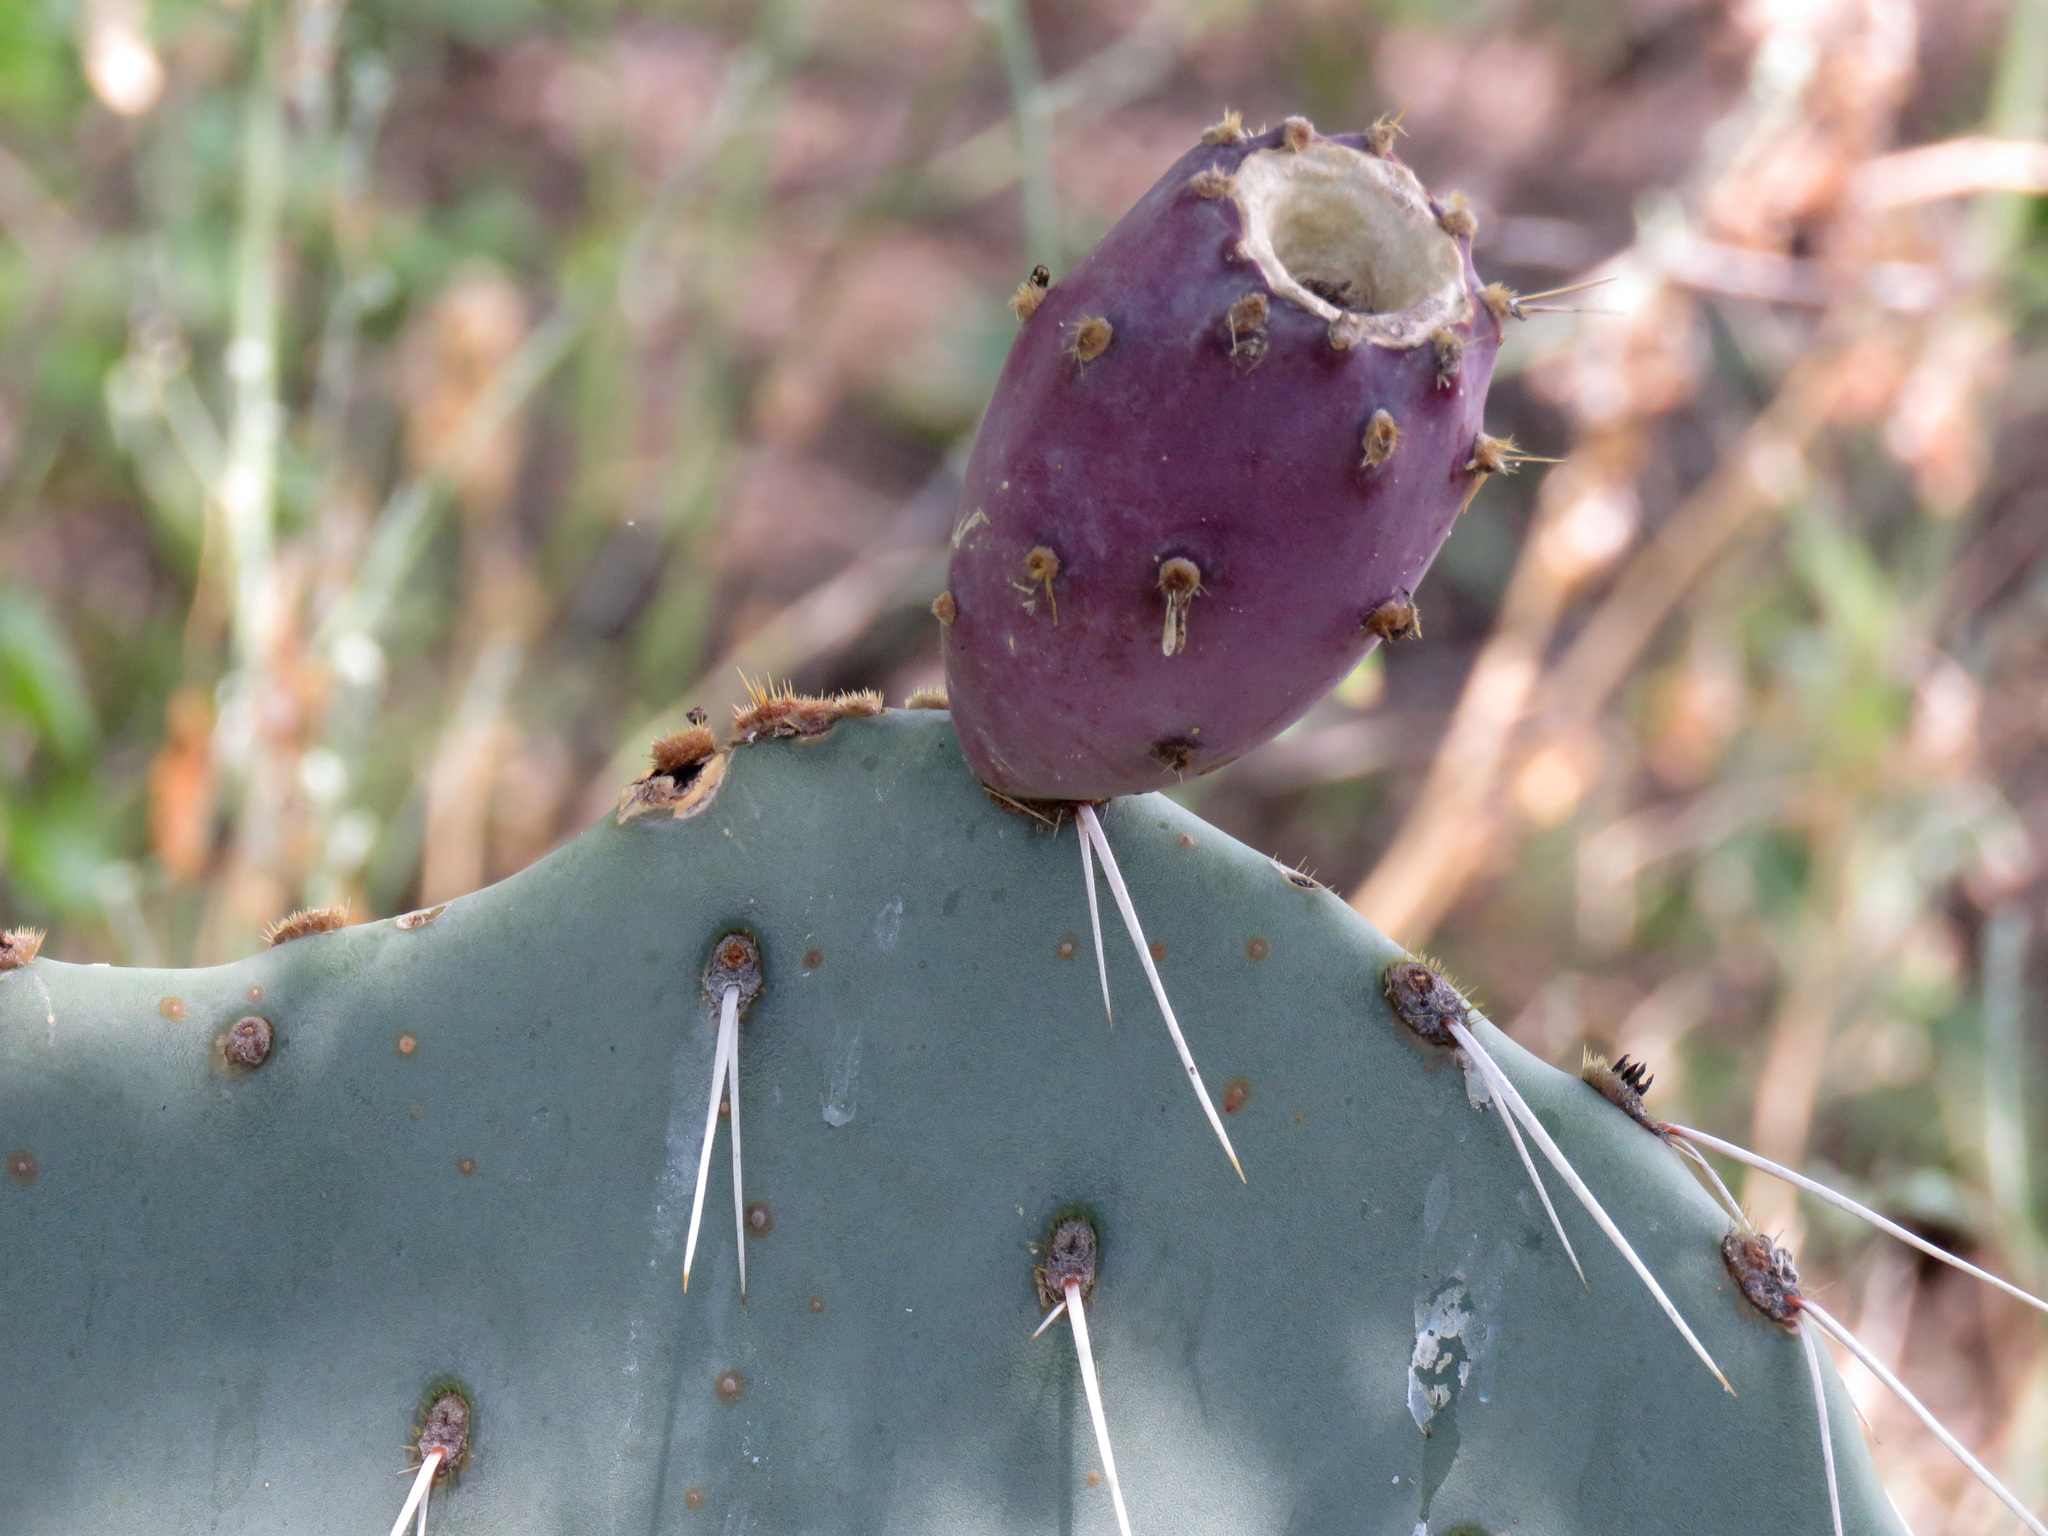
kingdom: Plantae
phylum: Tracheophyta
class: Magnoliopsida
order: Caryophyllales
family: Cactaceae
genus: Opuntia
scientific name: Opuntia engelmannii
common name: Cactus-apple
